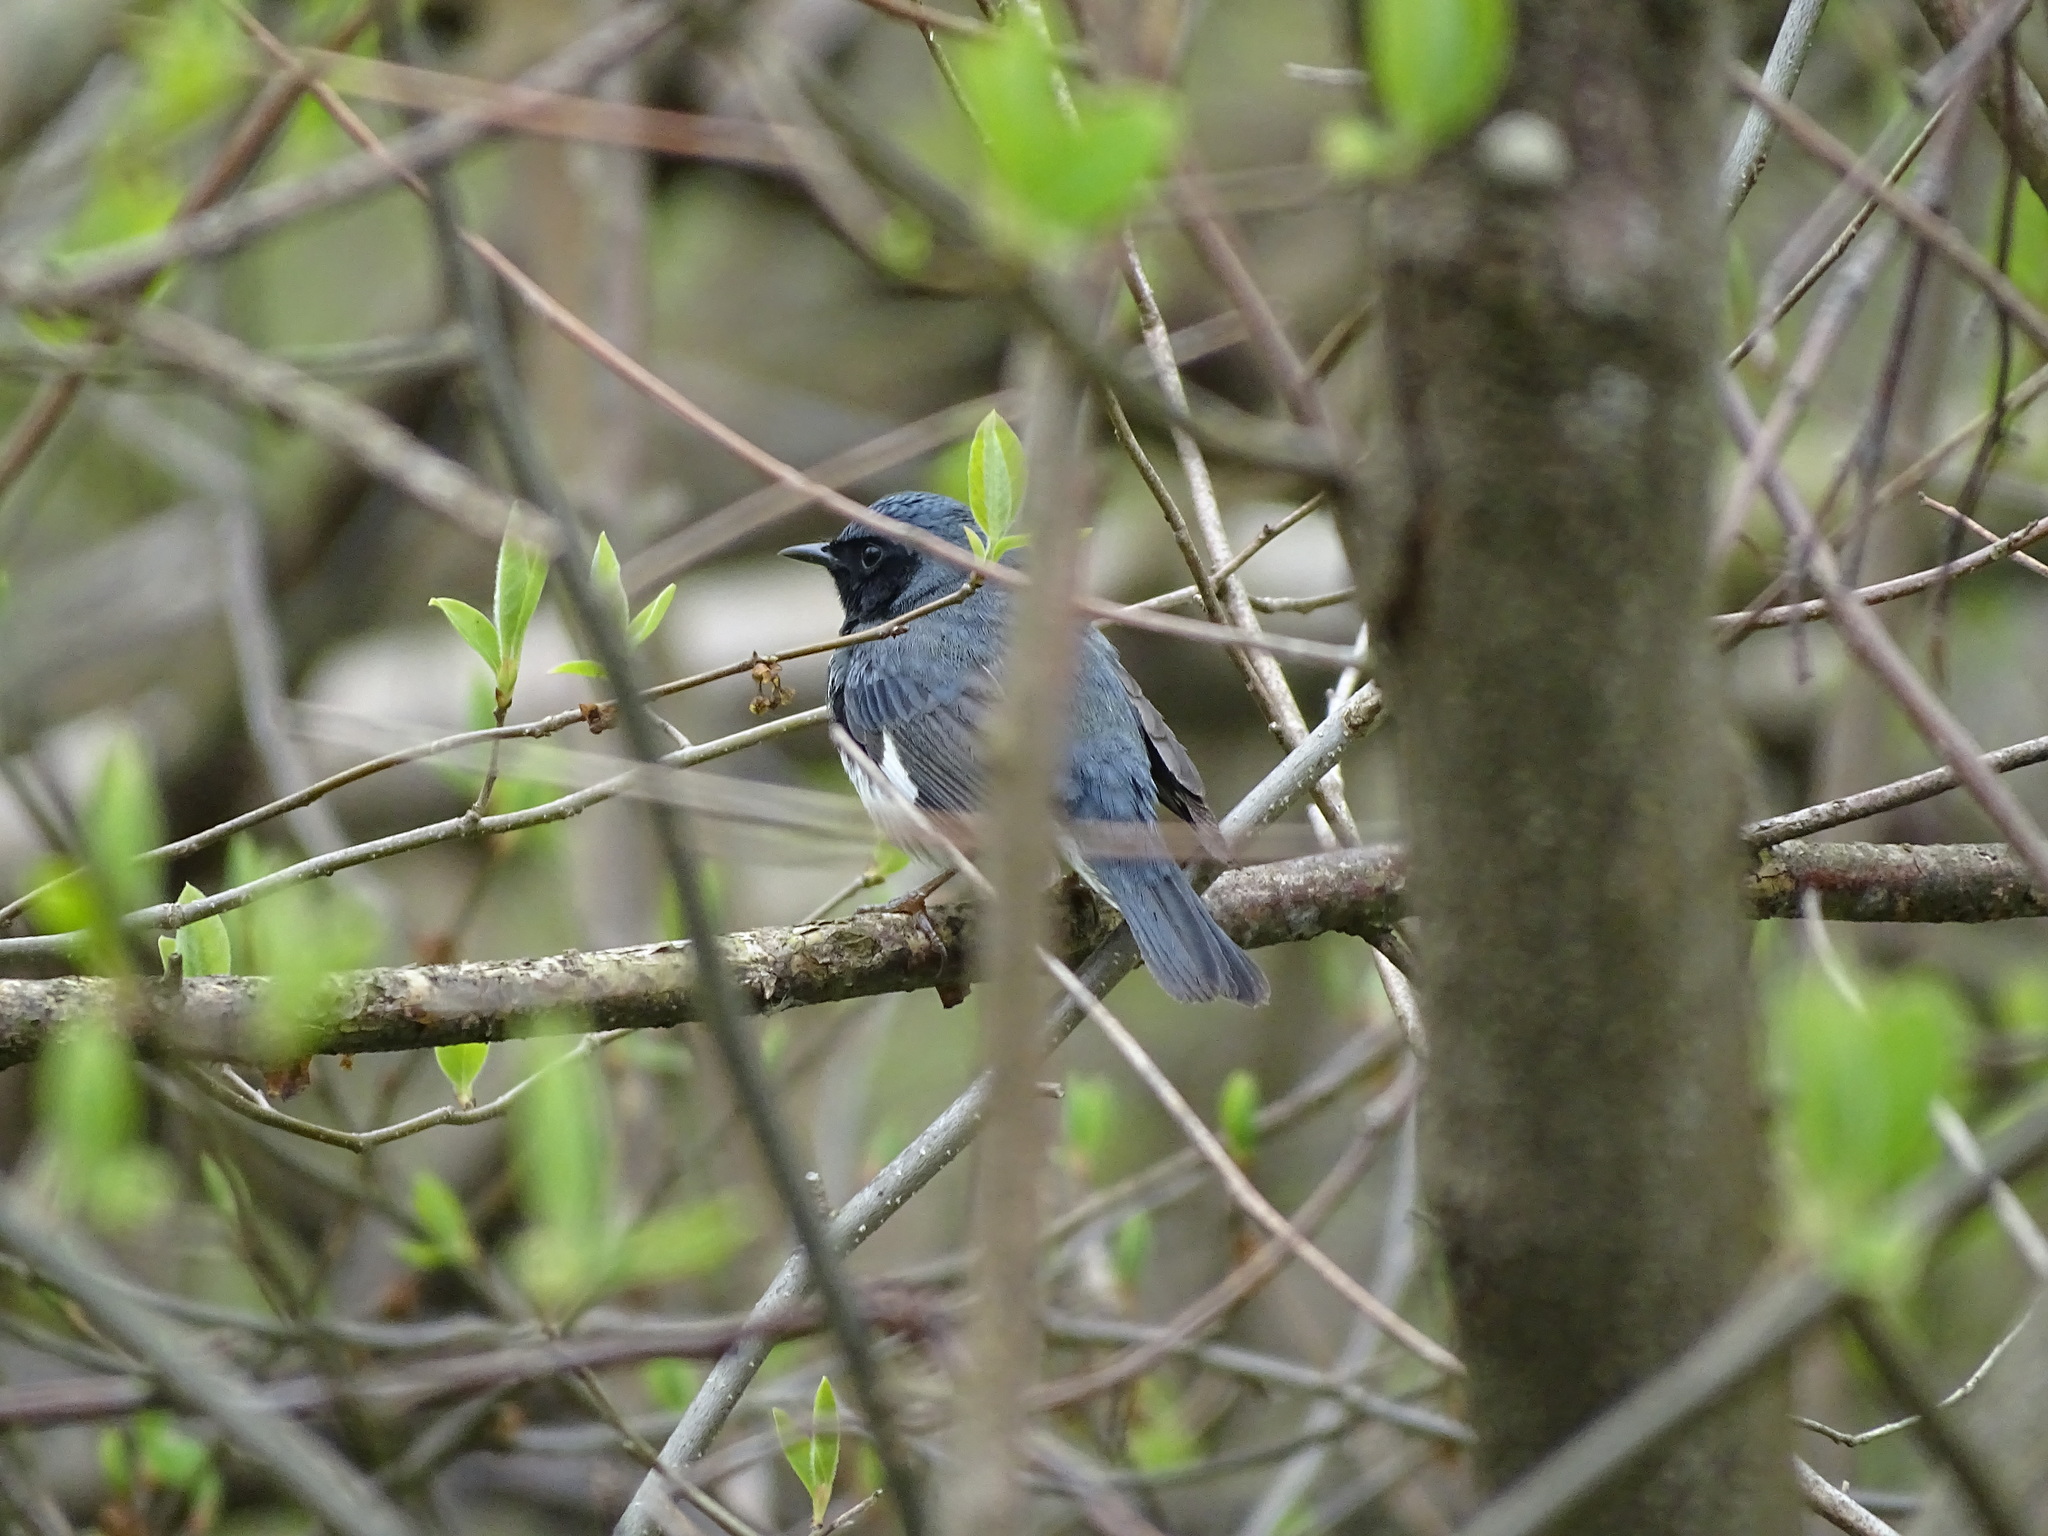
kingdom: Animalia
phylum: Chordata
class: Aves
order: Passeriformes
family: Parulidae
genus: Setophaga
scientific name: Setophaga caerulescens
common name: Black-throated blue warbler
